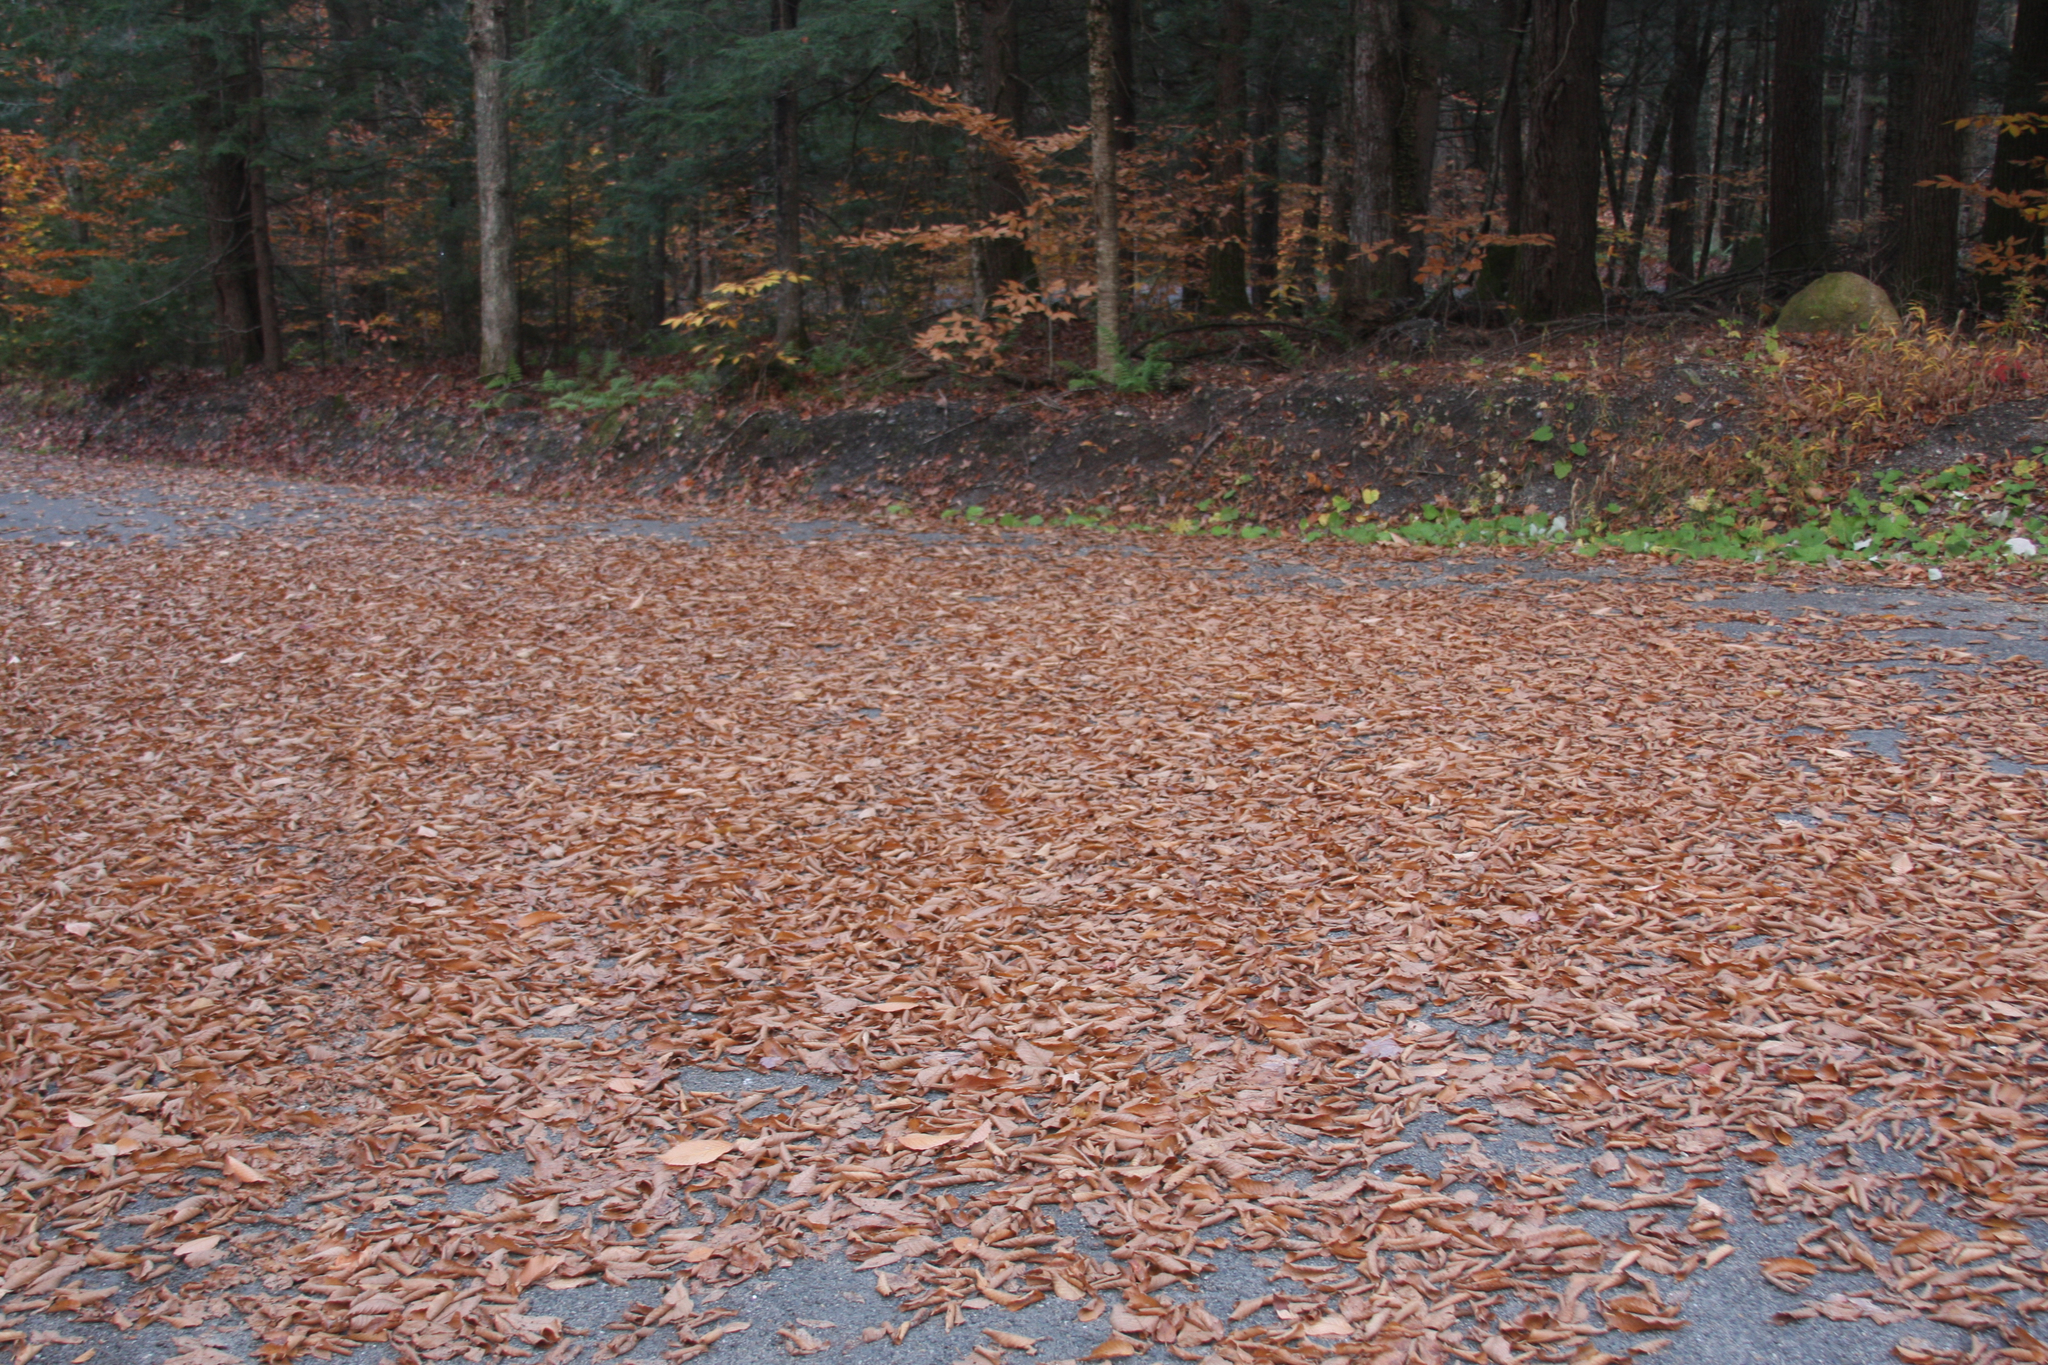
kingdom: Plantae
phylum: Tracheophyta
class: Magnoliopsida
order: Fagales
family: Fagaceae
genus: Fagus
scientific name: Fagus grandifolia
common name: American beech
